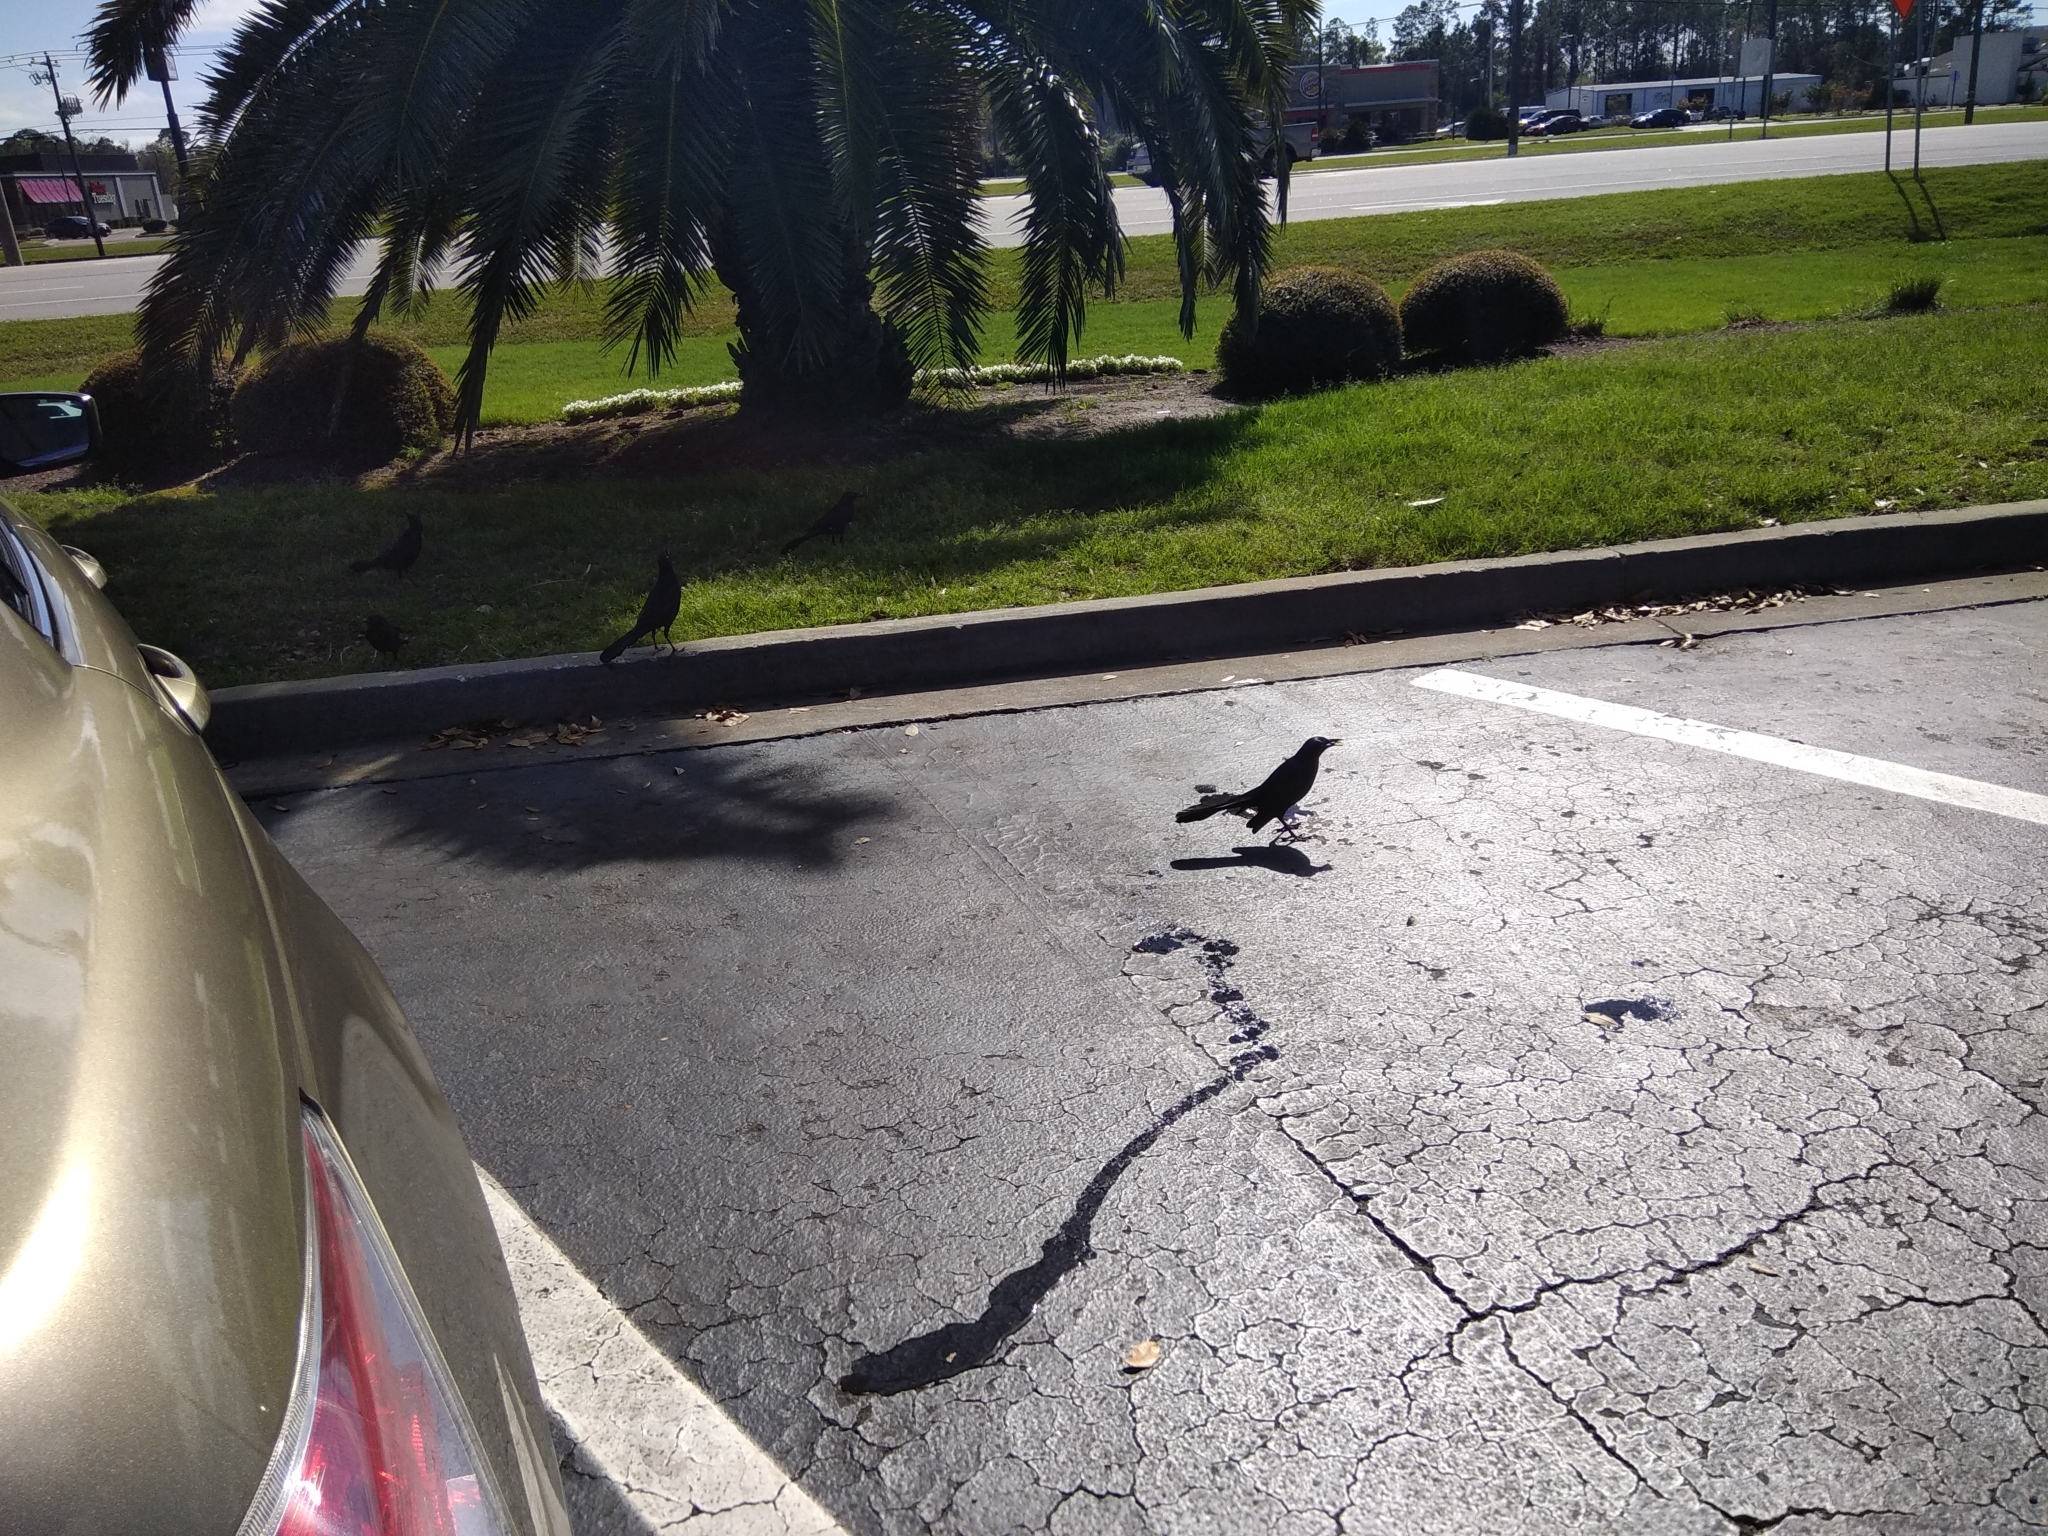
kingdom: Animalia
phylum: Chordata
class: Aves
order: Passeriformes
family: Icteridae
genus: Quiscalus
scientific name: Quiscalus major
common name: Boat-tailed grackle
